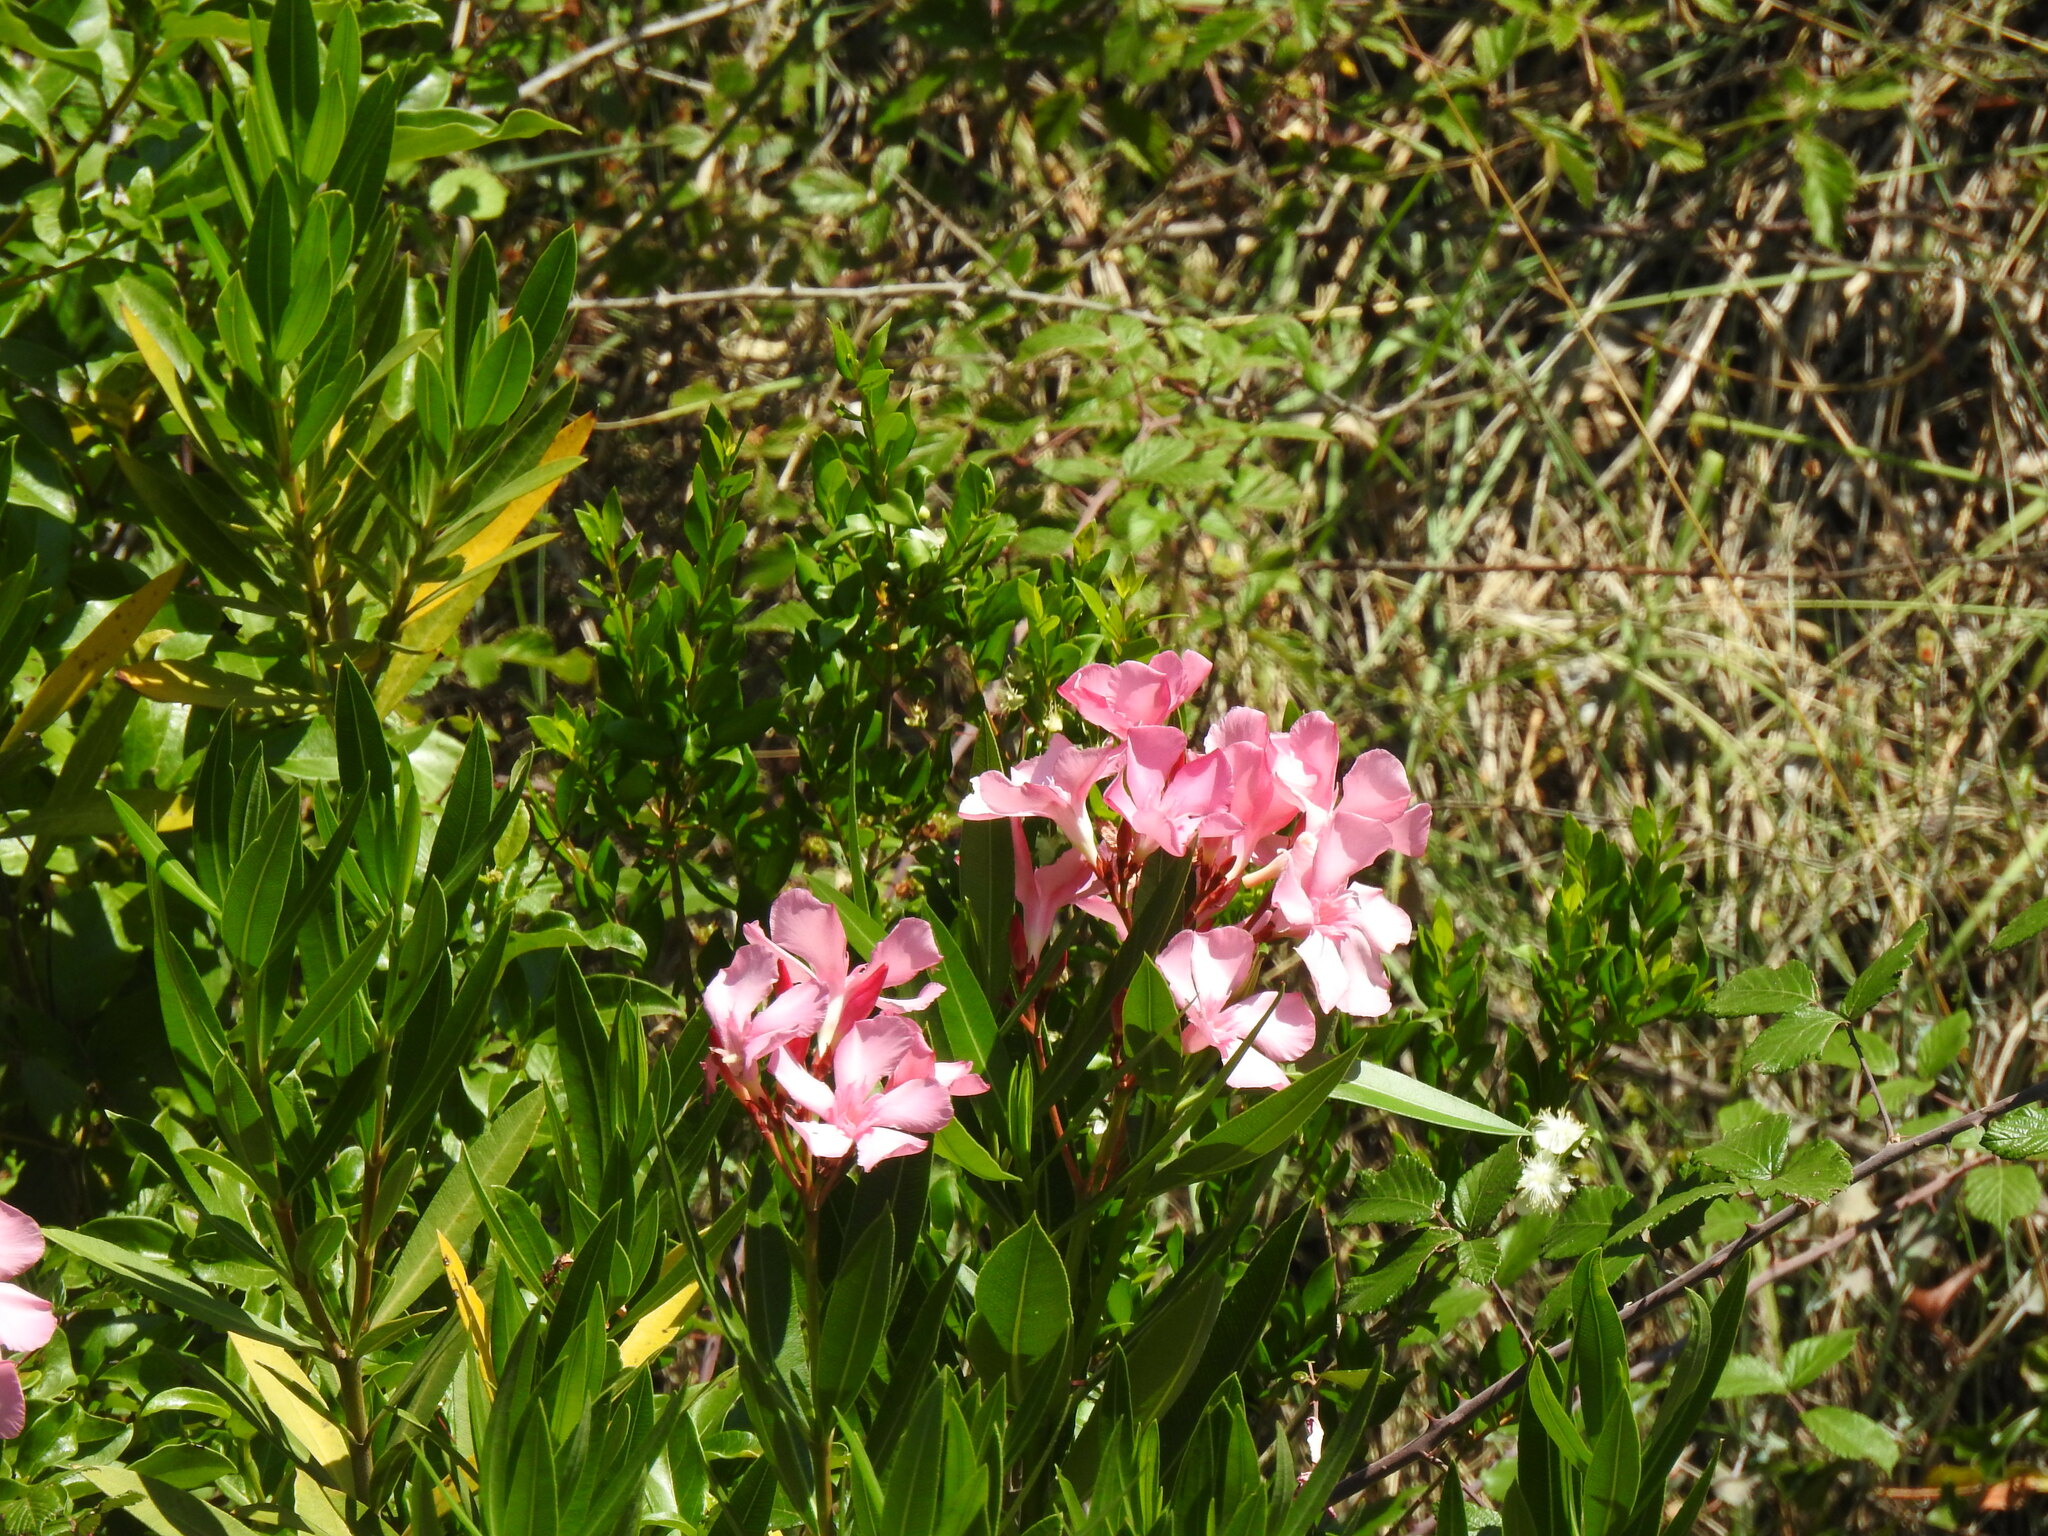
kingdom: Plantae
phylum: Tracheophyta
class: Magnoliopsida
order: Gentianales
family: Apocynaceae
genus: Nerium
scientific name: Nerium oleander
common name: Oleander
